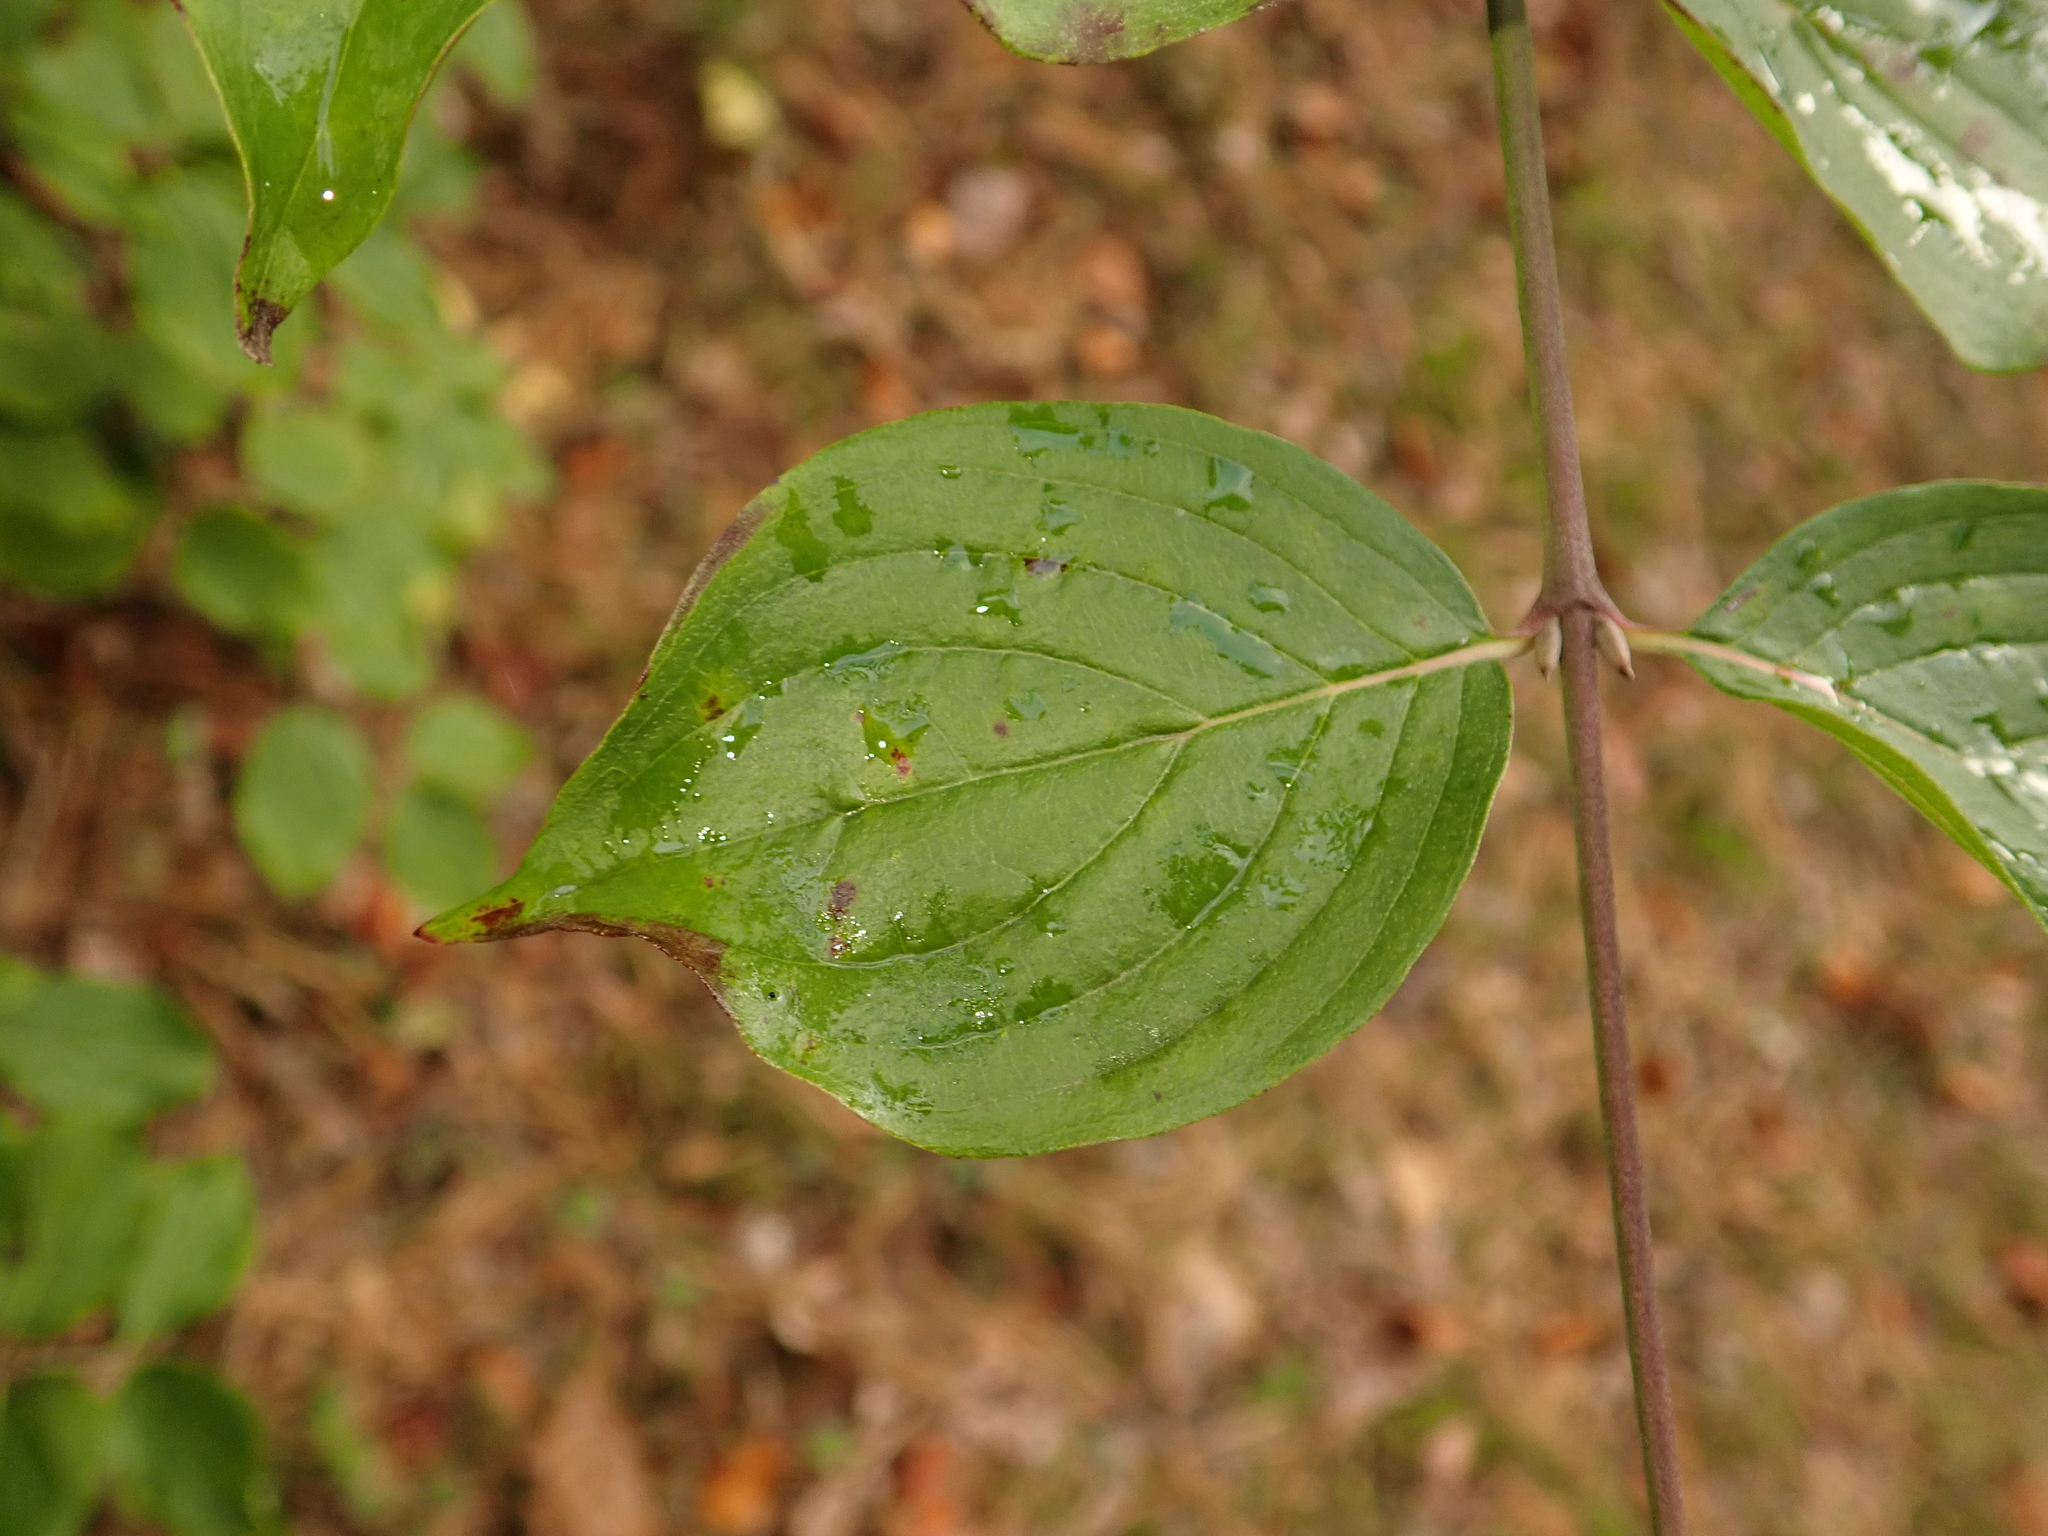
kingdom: Plantae
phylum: Tracheophyta
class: Magnoliopsida
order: Cornales
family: Cornaceae
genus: Cornus
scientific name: Cornus sanguinea
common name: Dogwood
